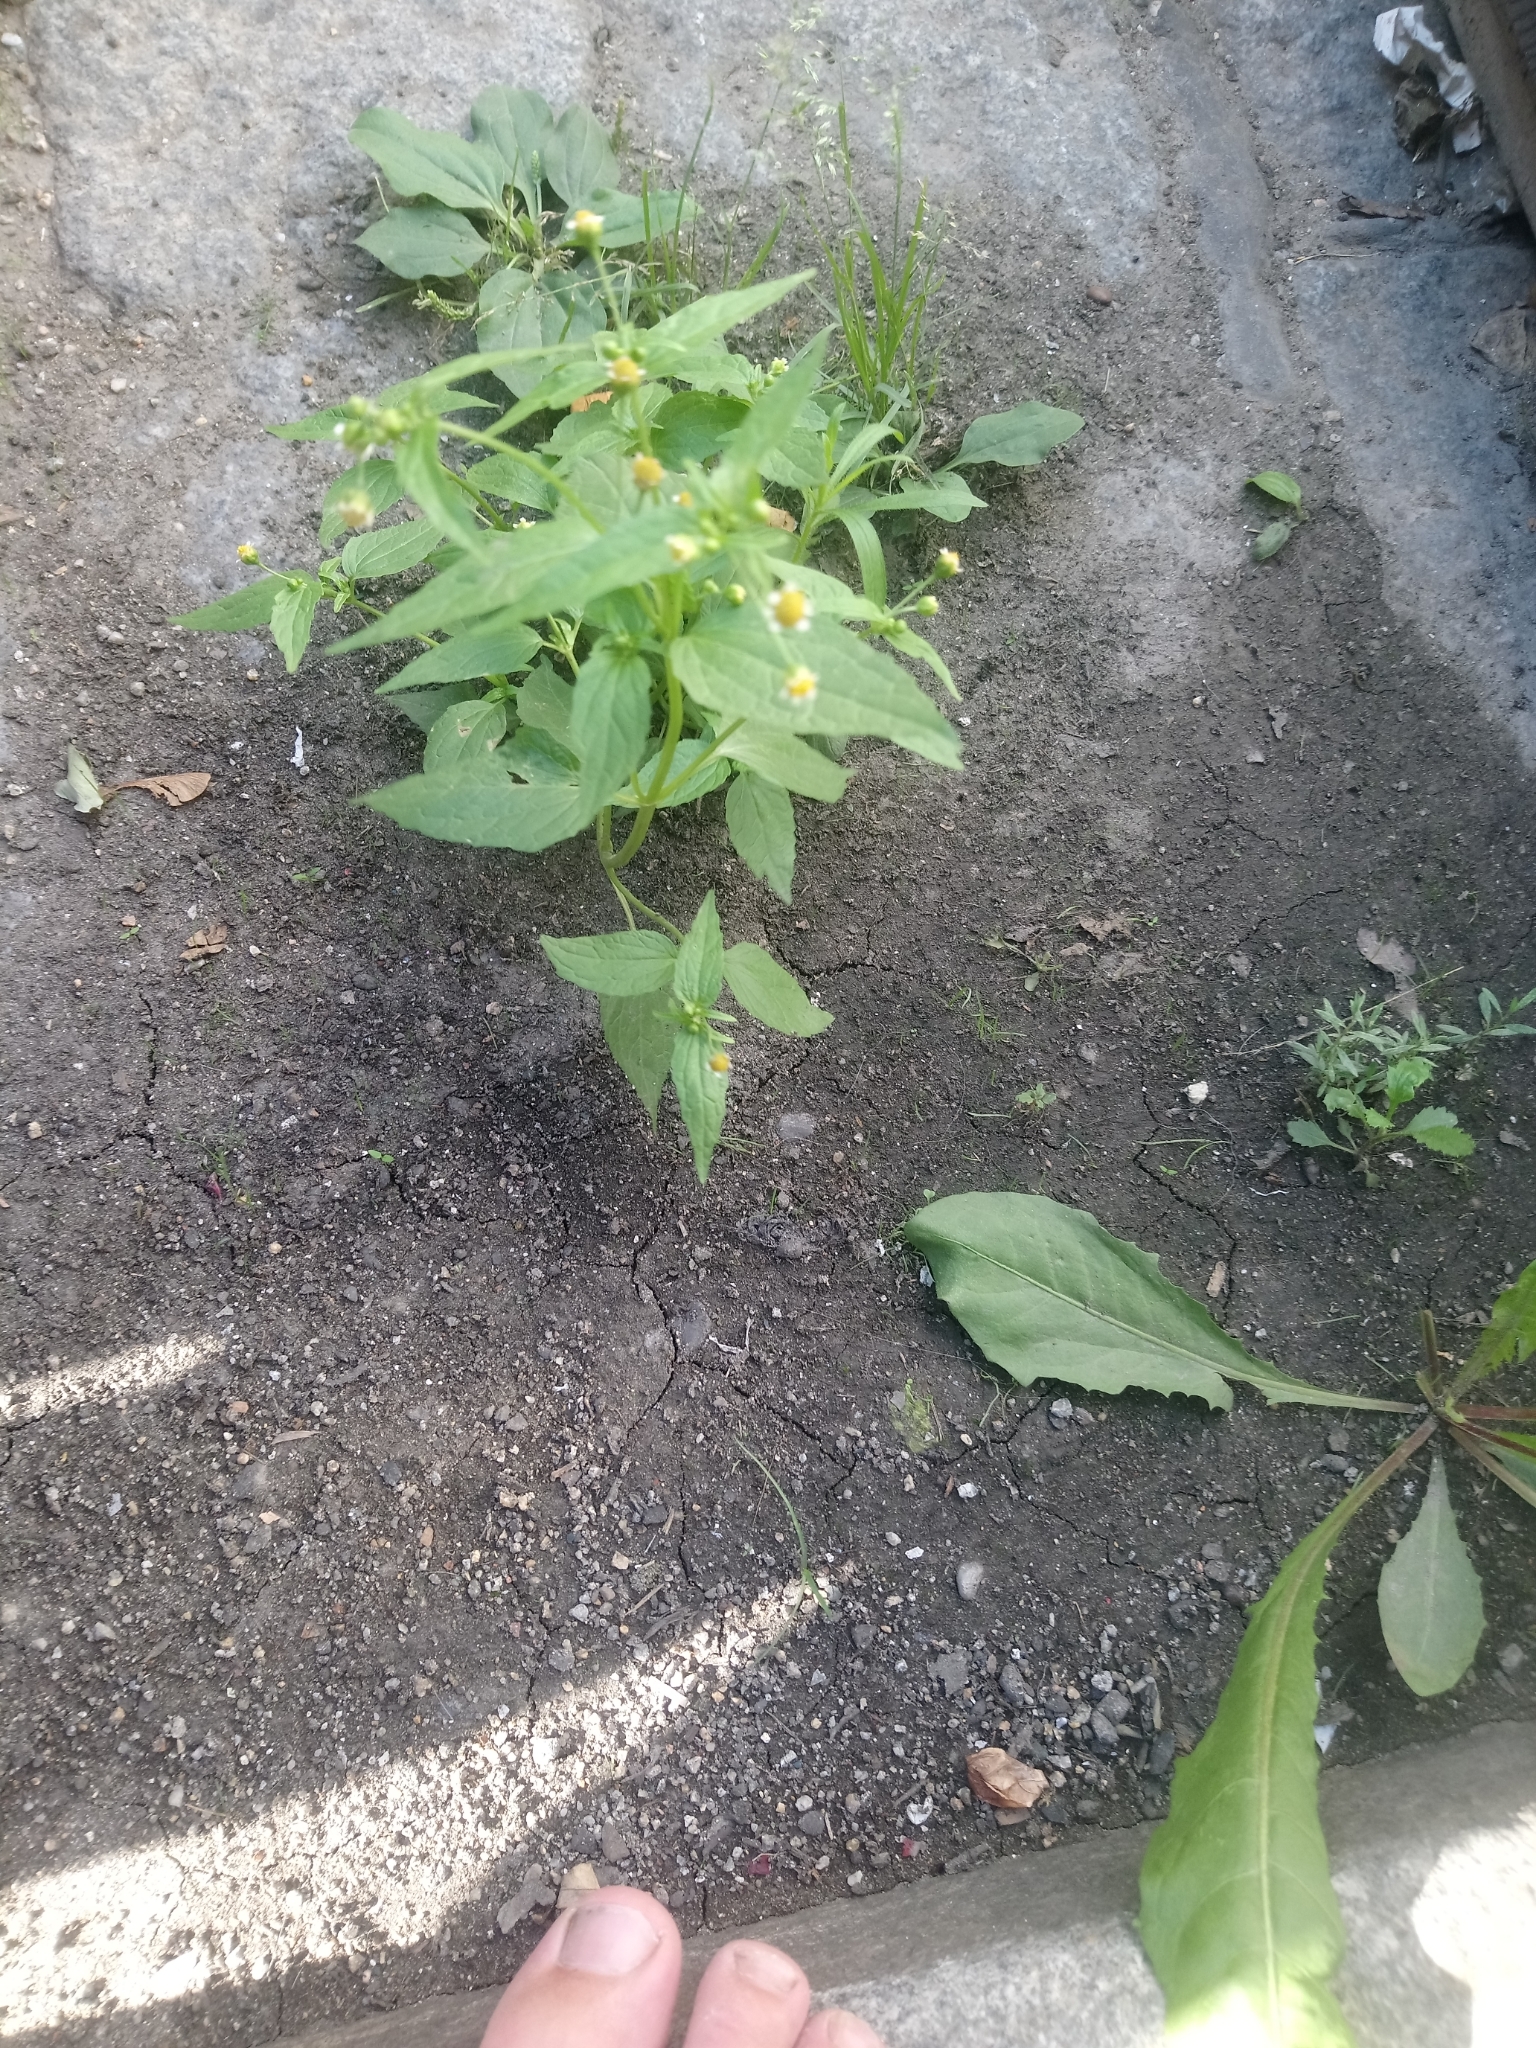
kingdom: Plantae
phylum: Tracheophyta
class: Magnoliopsida
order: Asterales
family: Asteraceae
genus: Galinsoga
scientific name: Galinsoga parviflora
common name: Gallant soldier
